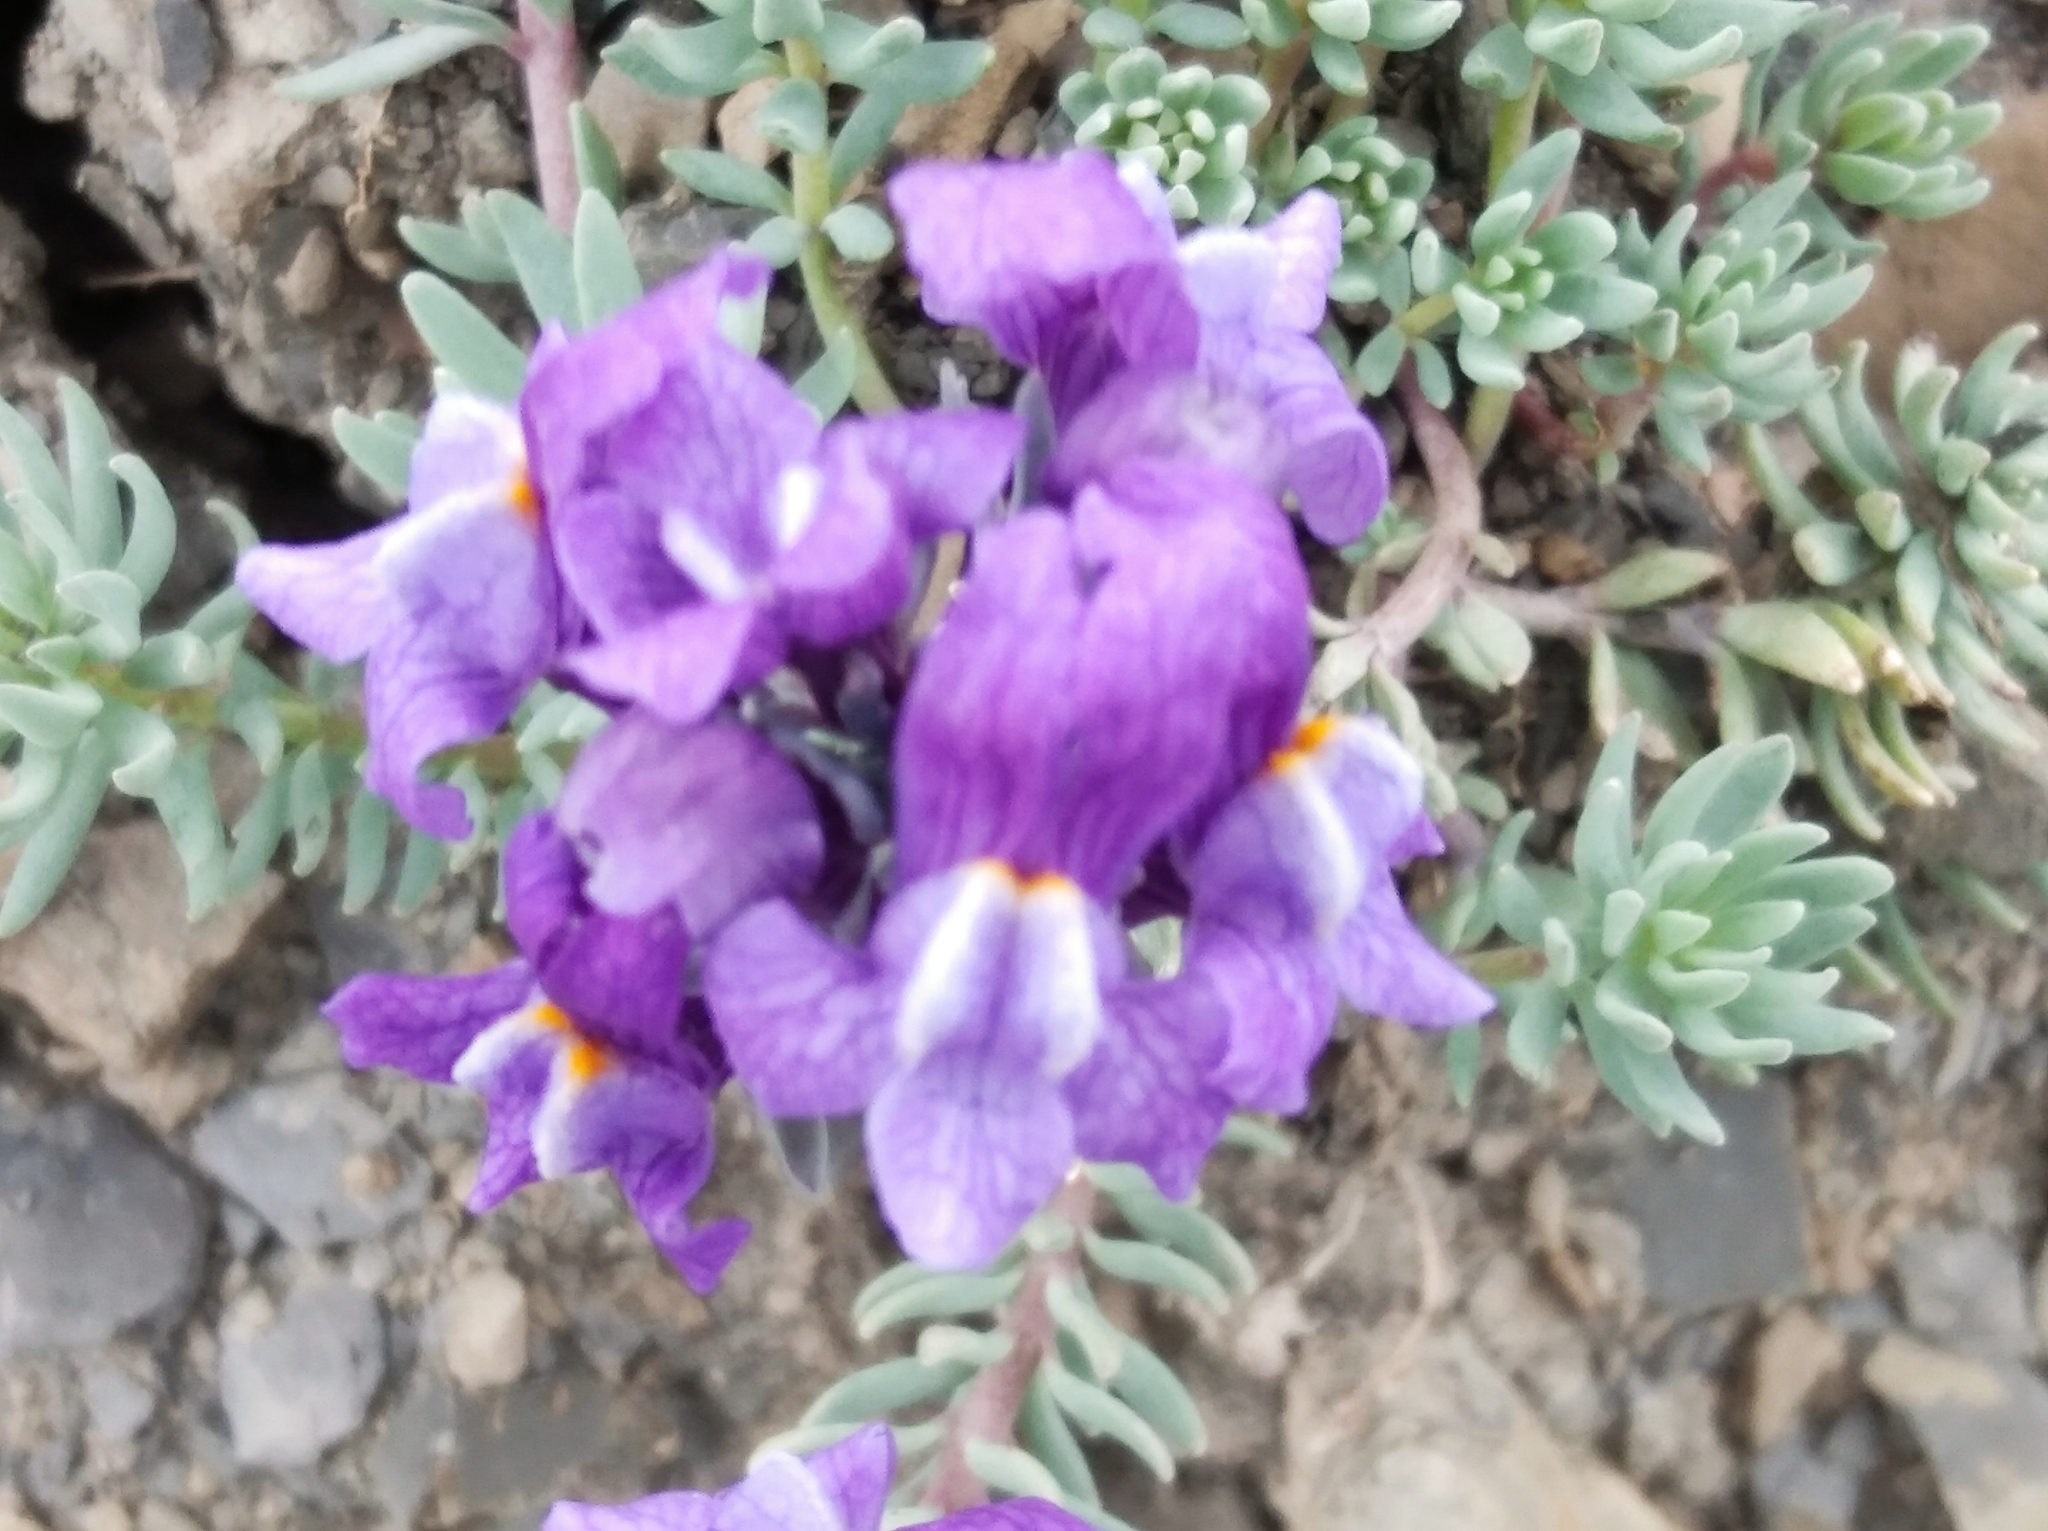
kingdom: Plantae
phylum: Tracheophyta
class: Magnoliopsida
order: Lamiales
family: Plantaginaceae
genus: Linaria
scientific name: Linaria alpina
